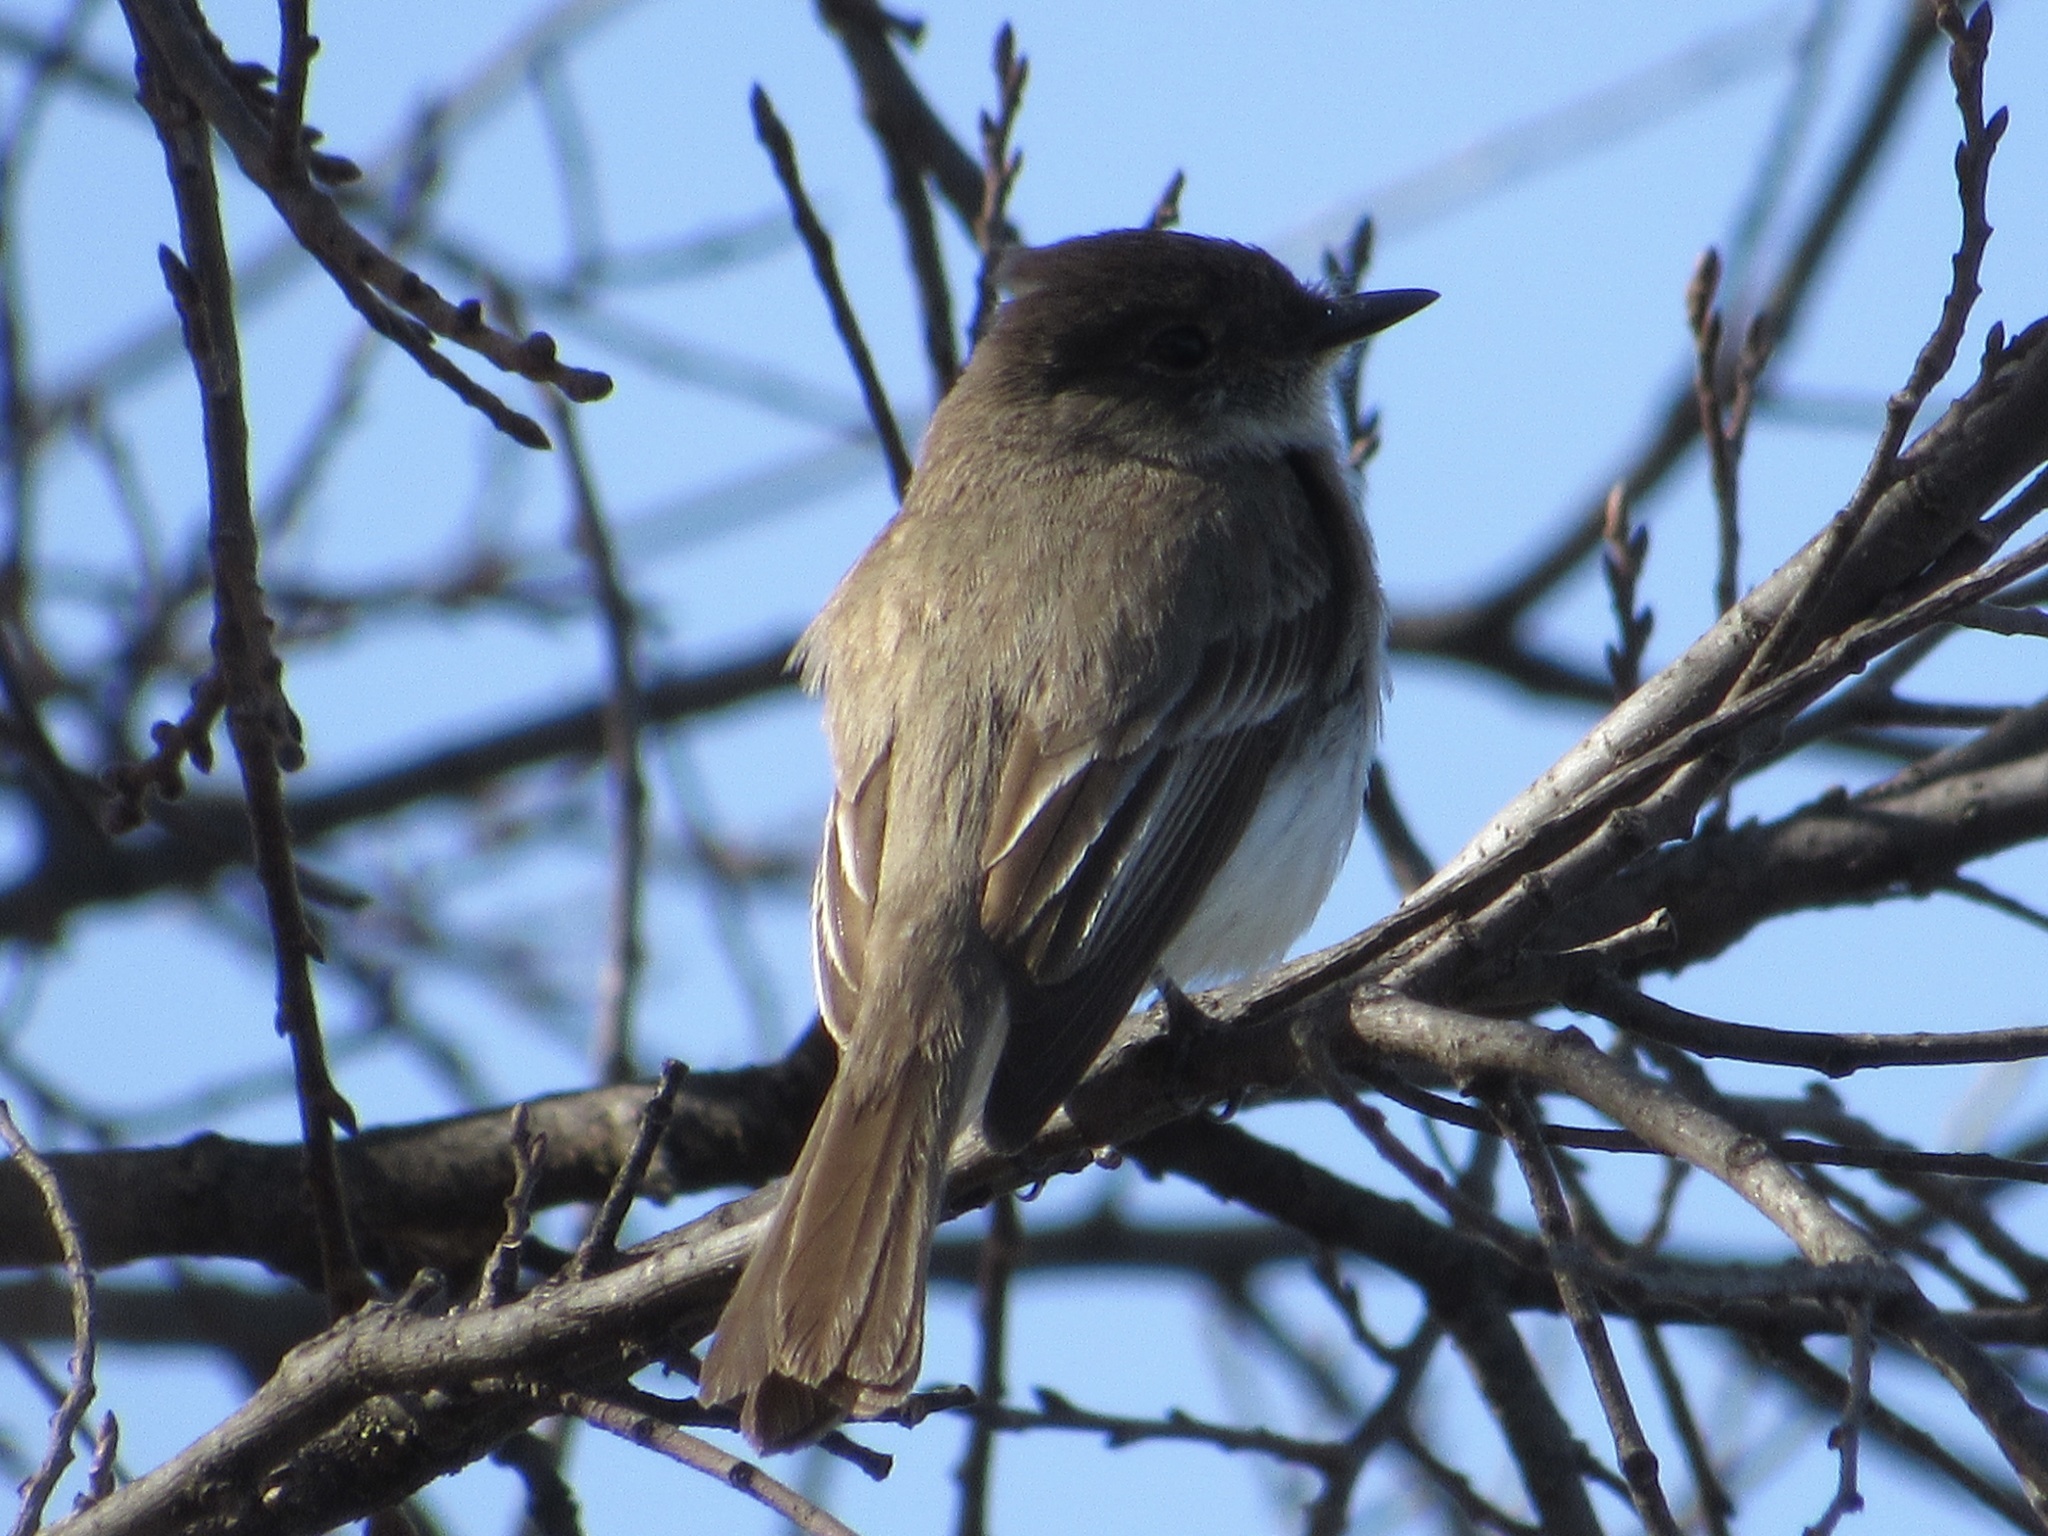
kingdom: Animalia
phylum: Chordata
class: Aves
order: Passeriformes
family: Tyrannidae
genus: Sayornis
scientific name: Sayornis phoebe
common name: Eastern phoebe
